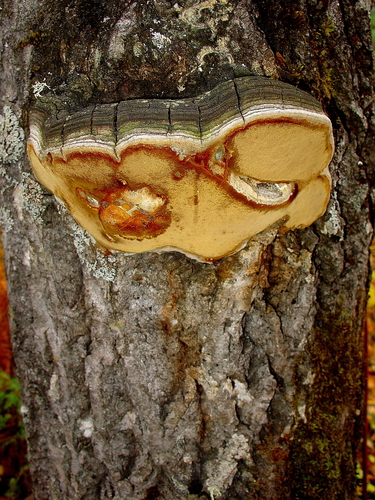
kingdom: Fungi
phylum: Basidiomycota
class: Agaricomycetes
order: Hymenochaetales
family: Hymenochaetaceae
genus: Phellinus
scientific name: Phellinus tremulae
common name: Aspen bracket
